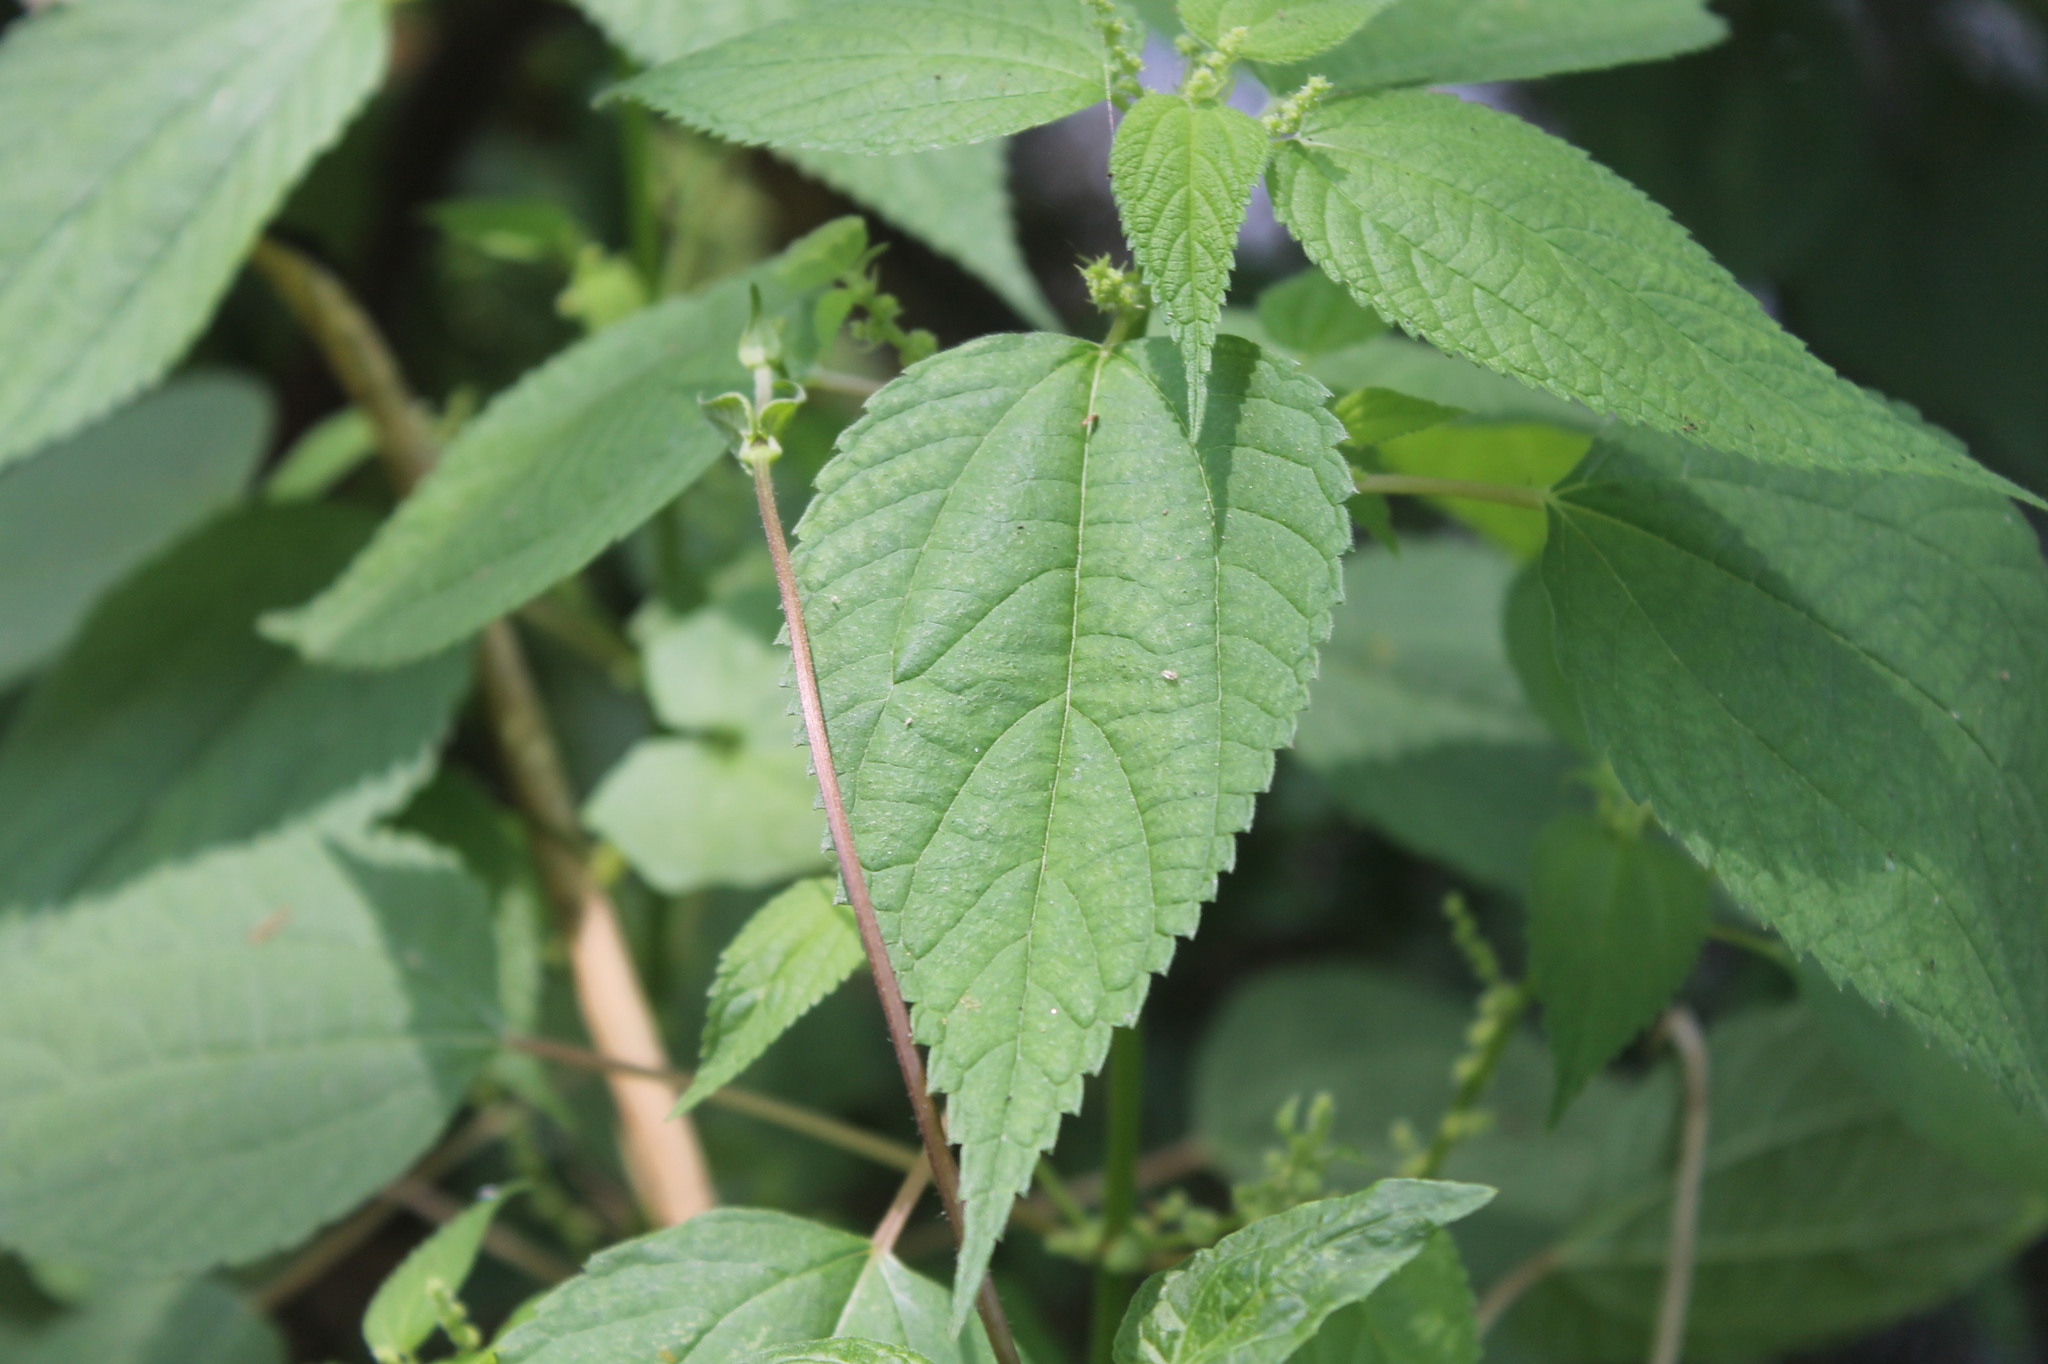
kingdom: Plantae
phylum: Tracheophyta
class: Magnoliopsida
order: Rosales
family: Urticaceae
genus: Boehmeria
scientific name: Boehmeria cylindrica
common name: Bog-hemp
